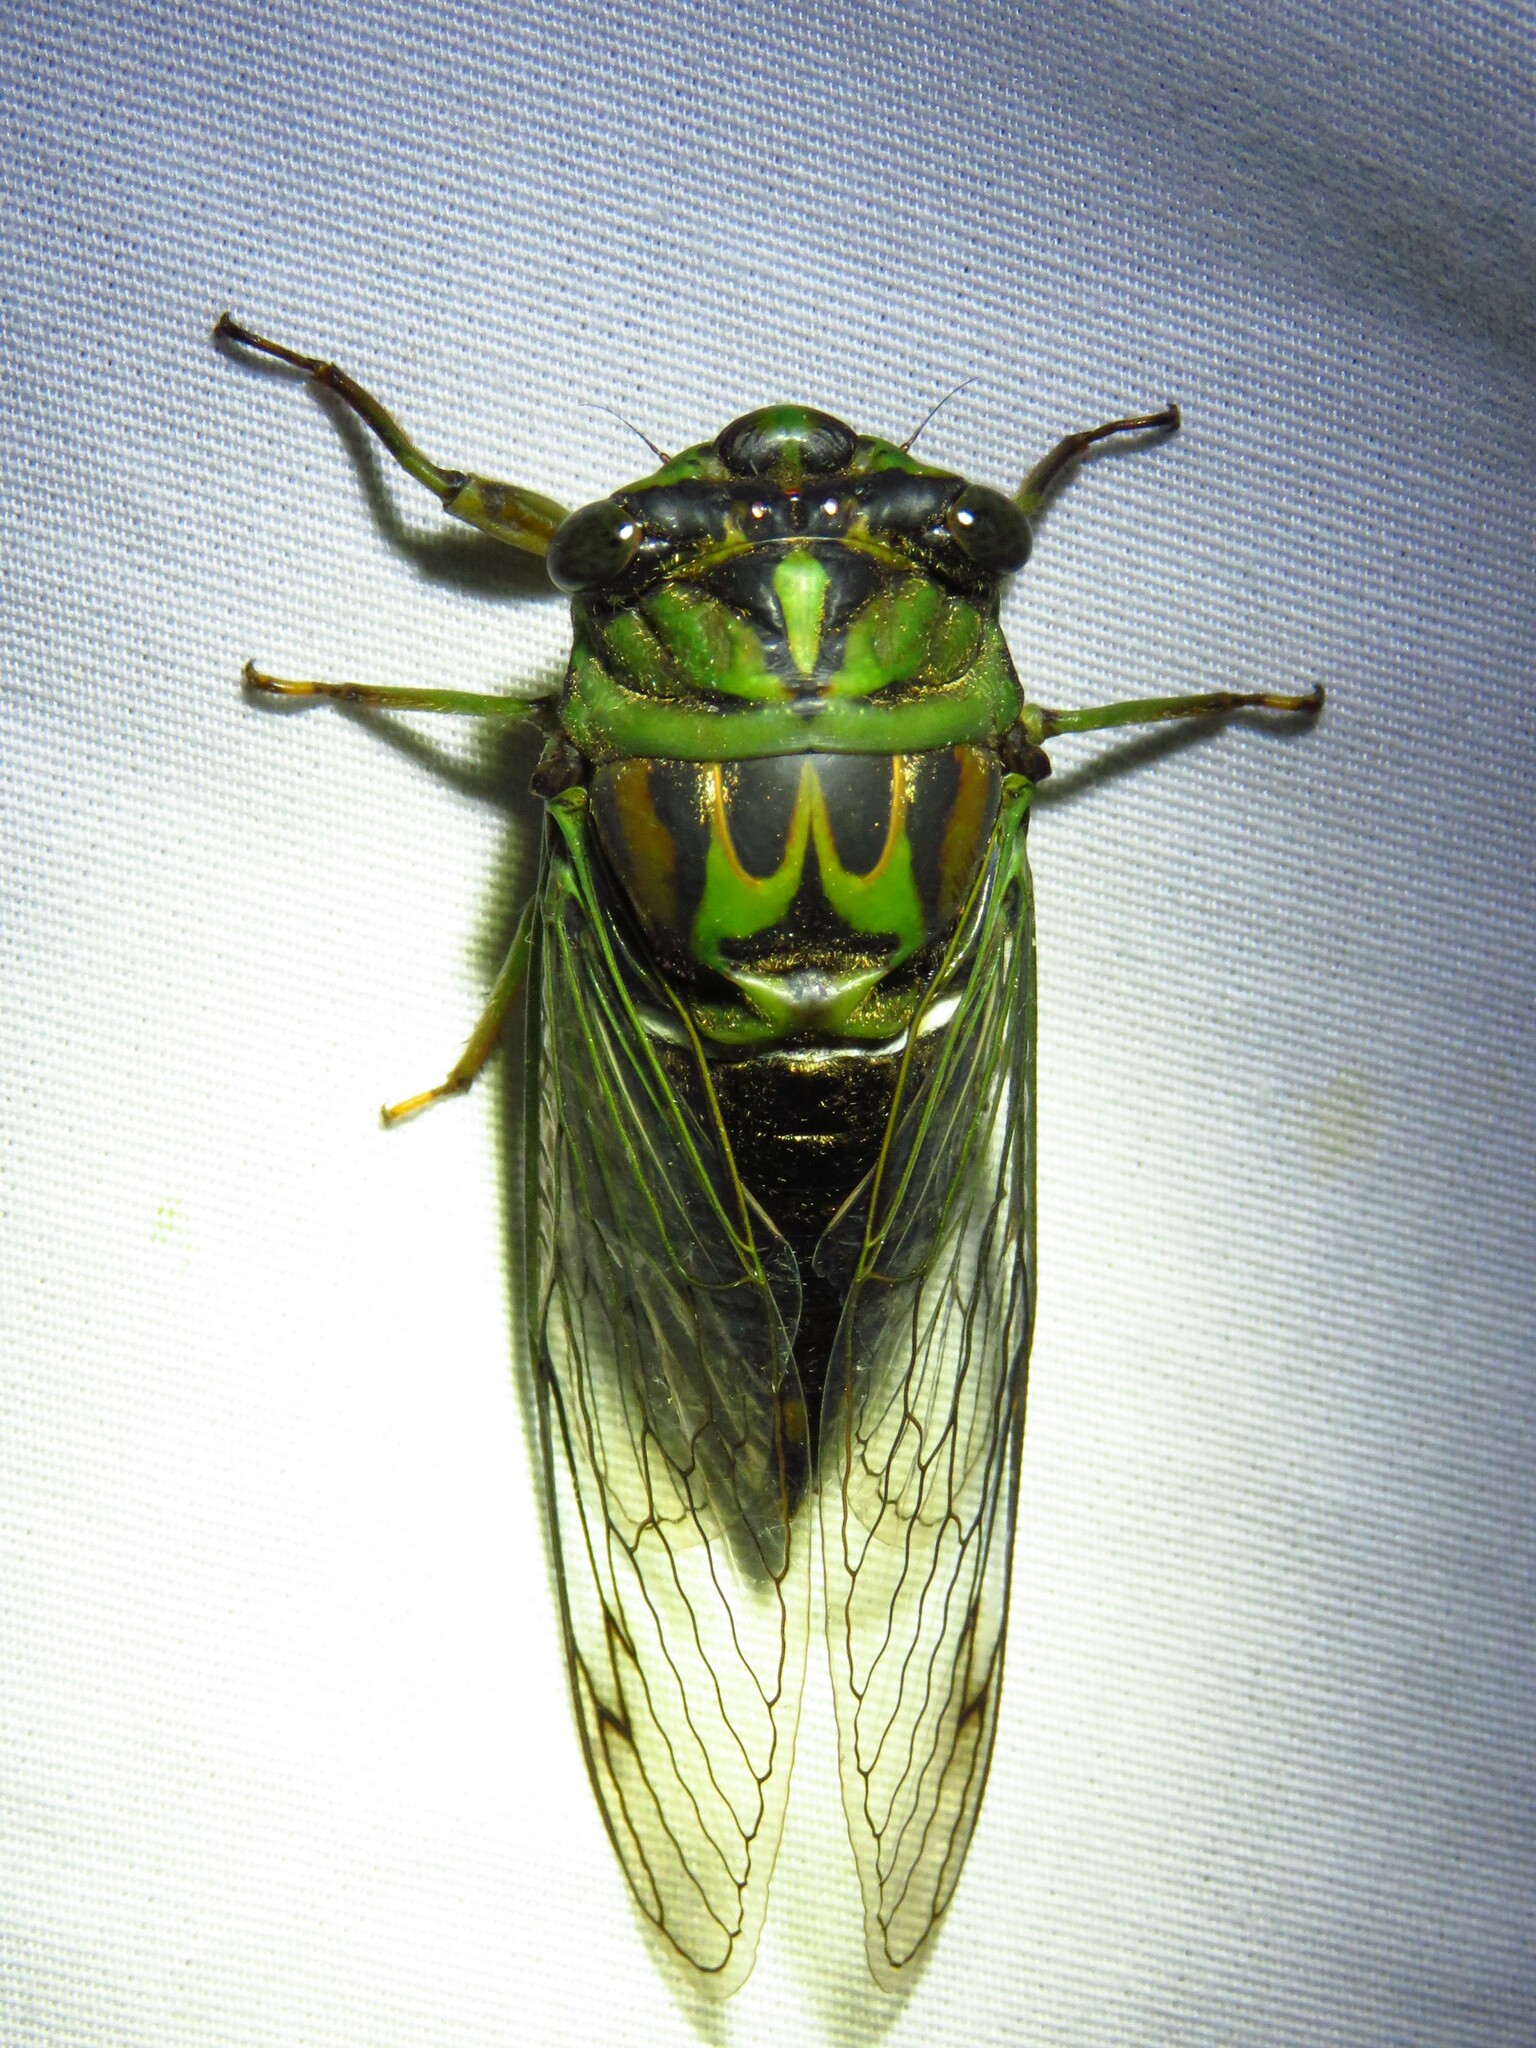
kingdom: Animalia
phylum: Arthropoda
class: Insecta
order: Hemiptera
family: Cicadidae
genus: Neotibicen
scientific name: Neotibicen robinsonianus
